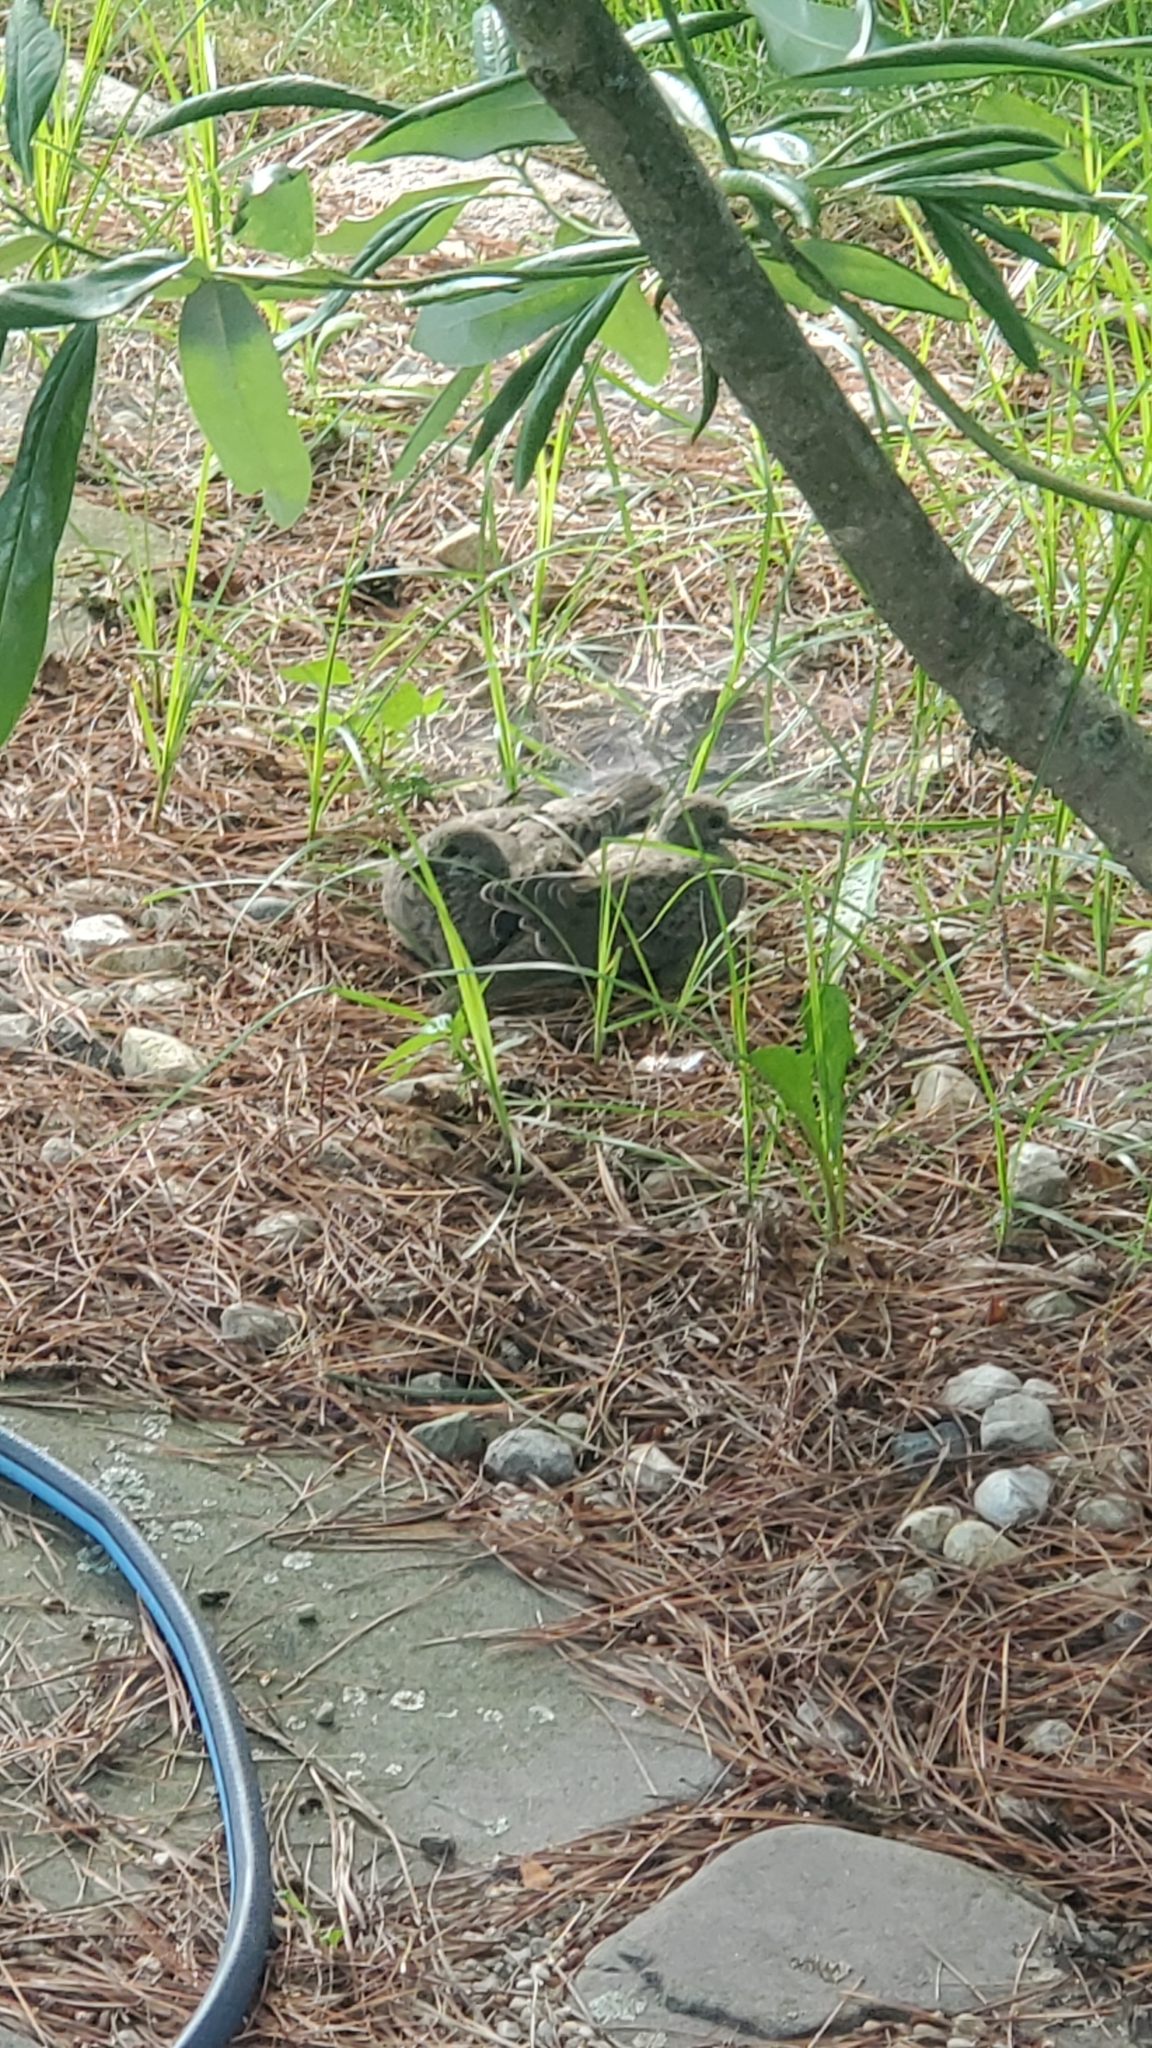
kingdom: Animalia
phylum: Chordata
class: Aves
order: Columbiformes
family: Columbidae
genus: Zenaida
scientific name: Zenaida macroura
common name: Mourning dove
